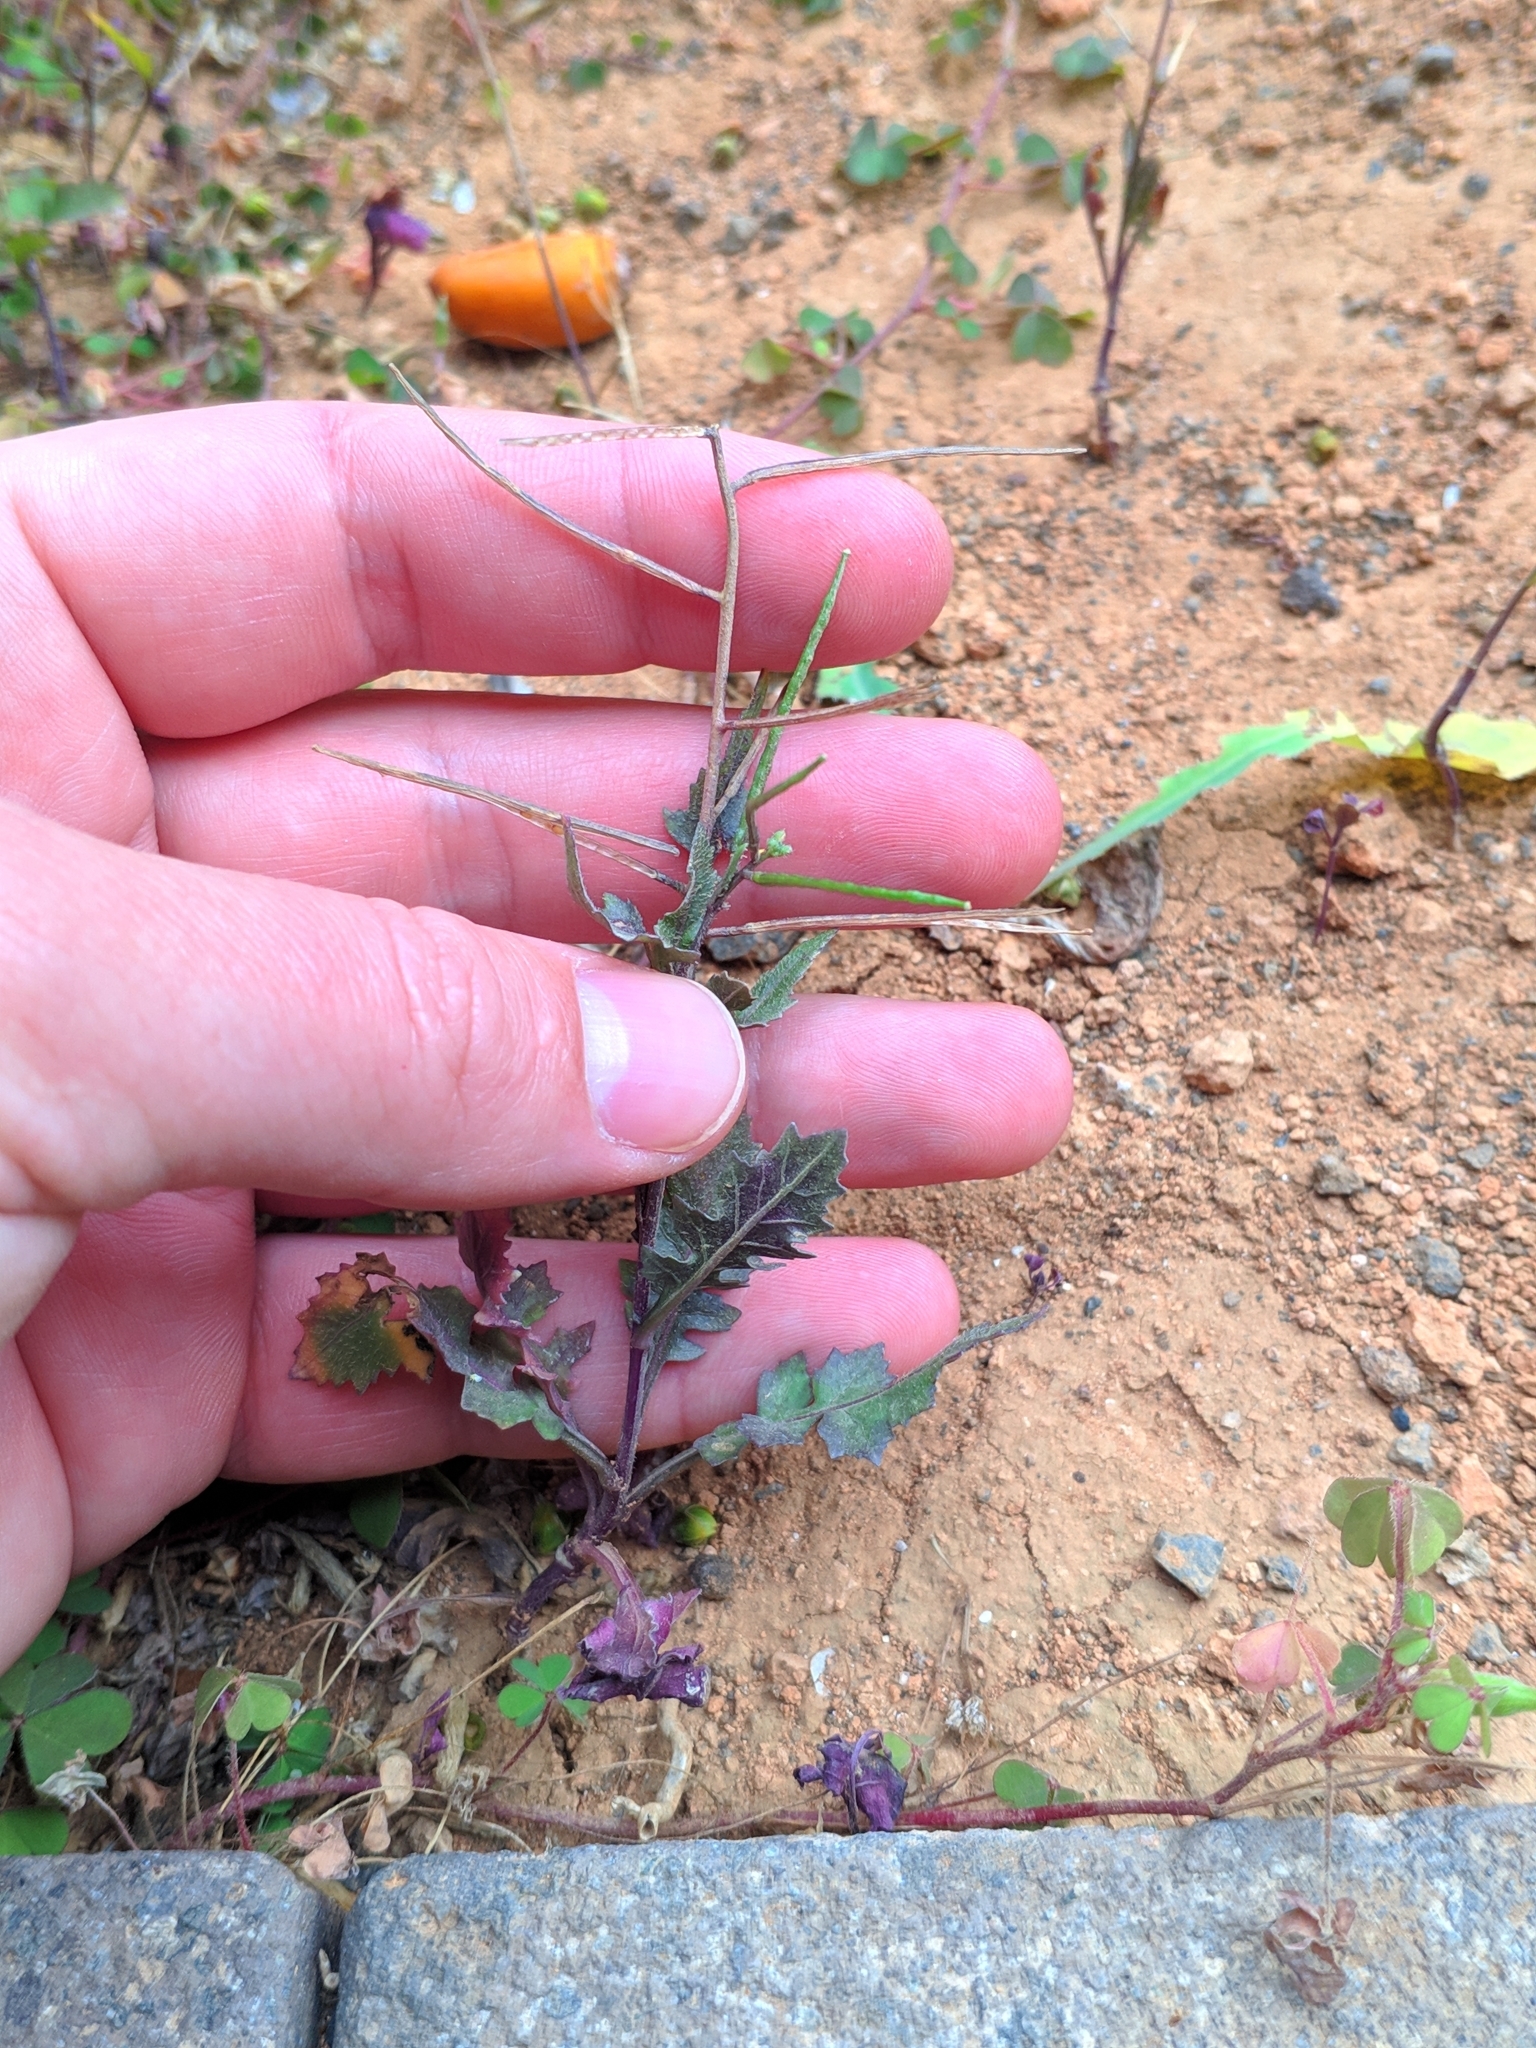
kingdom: Plantae
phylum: Tracheophyta
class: Magnoliopsida
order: Brassicales
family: Brassicaceae
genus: Sisymbrium
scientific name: Sisymbrium erysimoides
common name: French rocket
